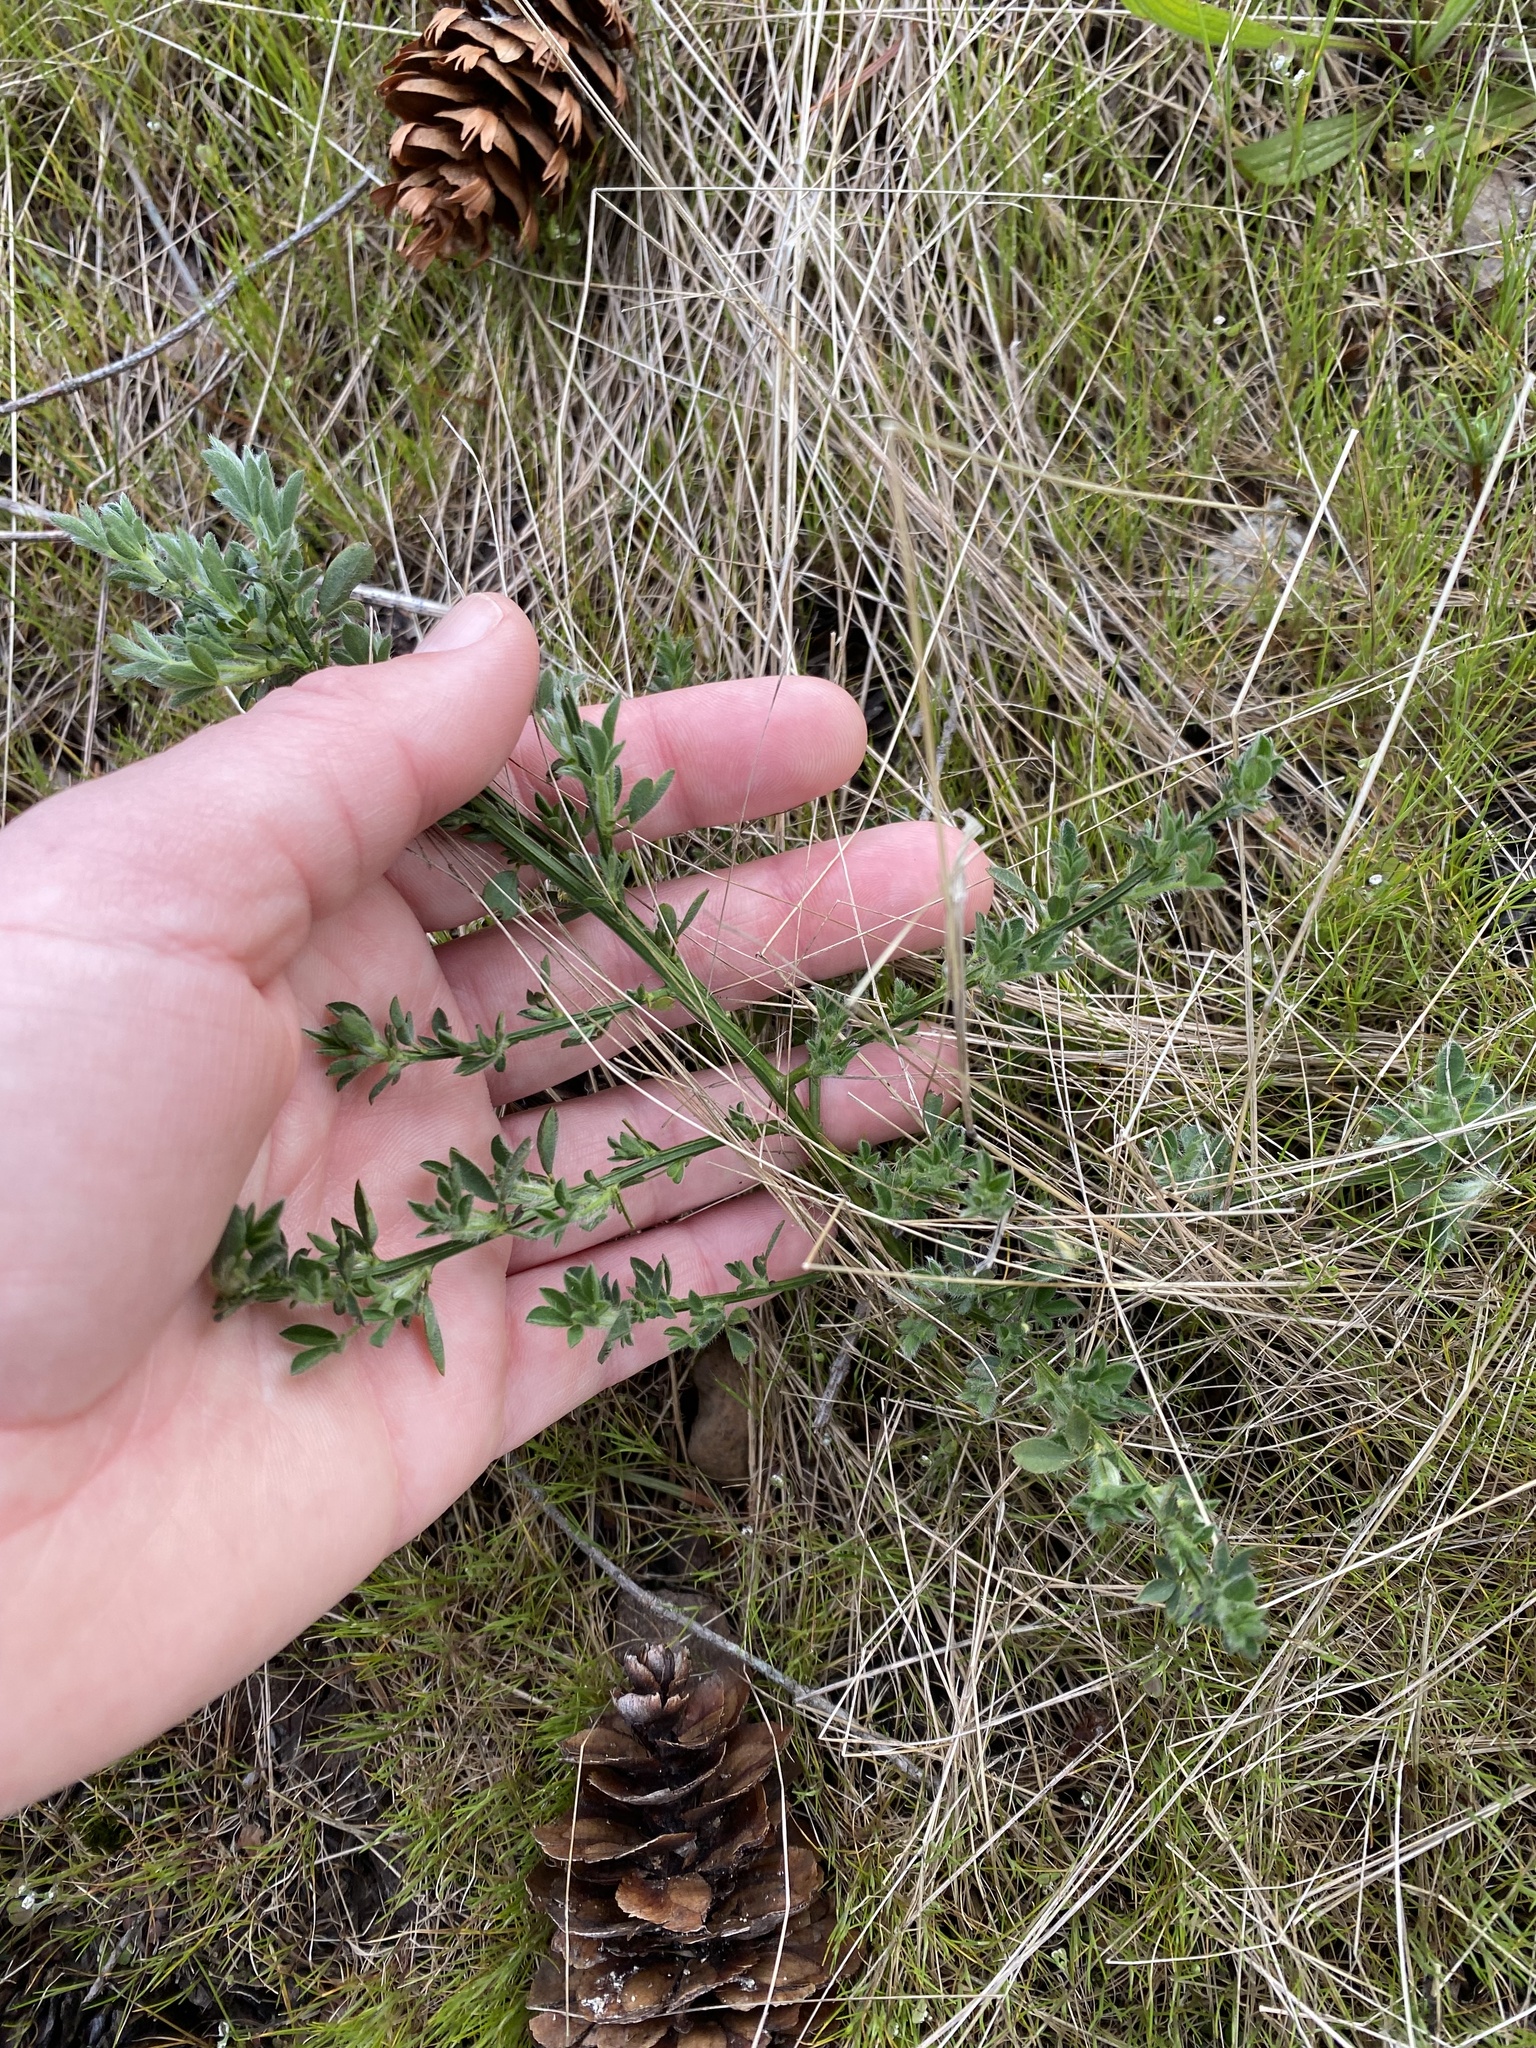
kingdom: Plantae
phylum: Tracheophyta
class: Magnoliopsida
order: Fabales
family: Fabaceae
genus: Cytisus
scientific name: Cytisus scoparius
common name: Scotch broom
